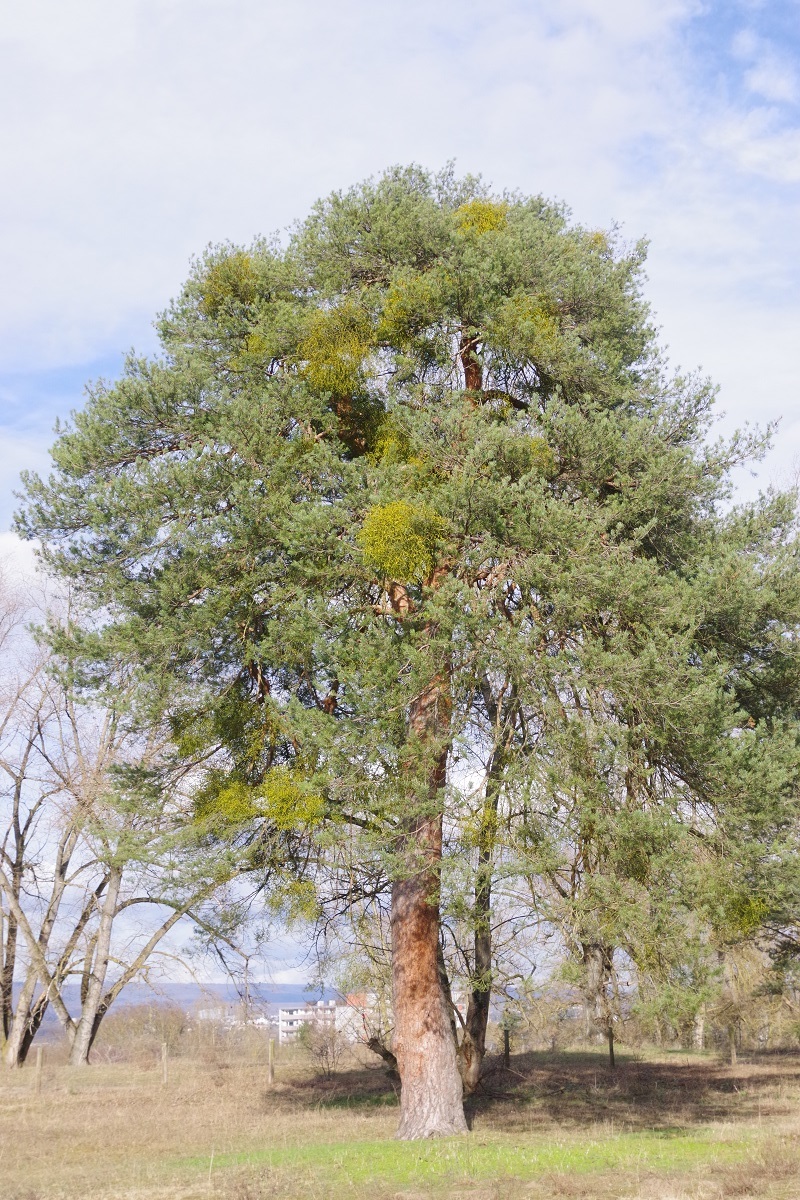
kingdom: Plantae
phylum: Tracheophyta
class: Magnoliopsida
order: Santalales
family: Viscaceae
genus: Viscum
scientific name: Viscum album
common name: Mistletoe
